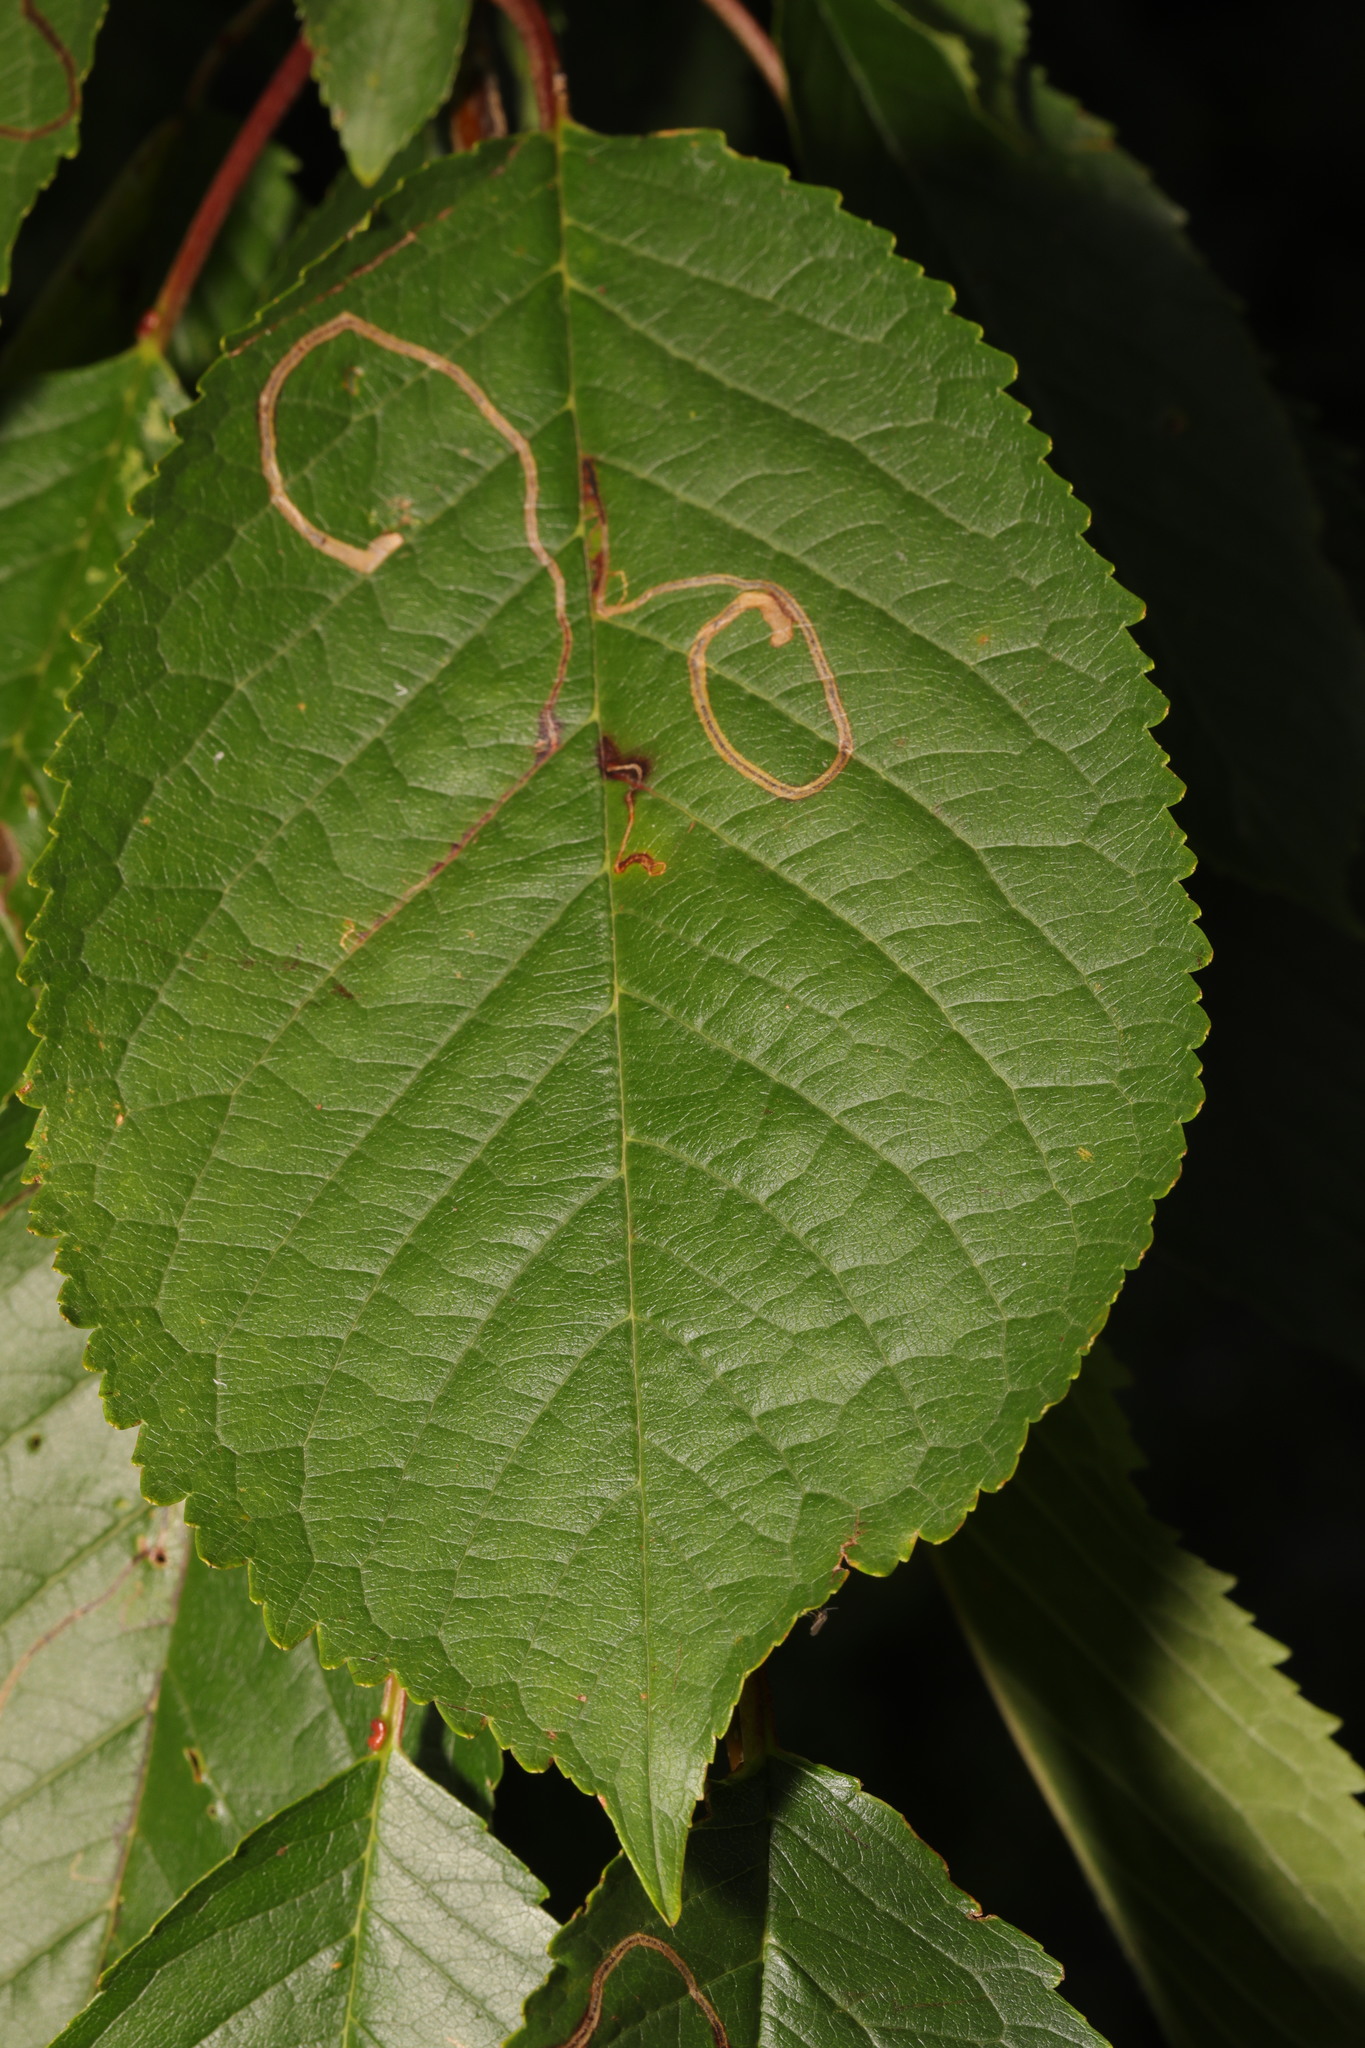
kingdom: Plantae
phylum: Tracheophyta
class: Magnoliopsida
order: Rosales
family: Rosaceae
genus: Prunus
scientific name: Prunus avium
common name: Sweet cherry
